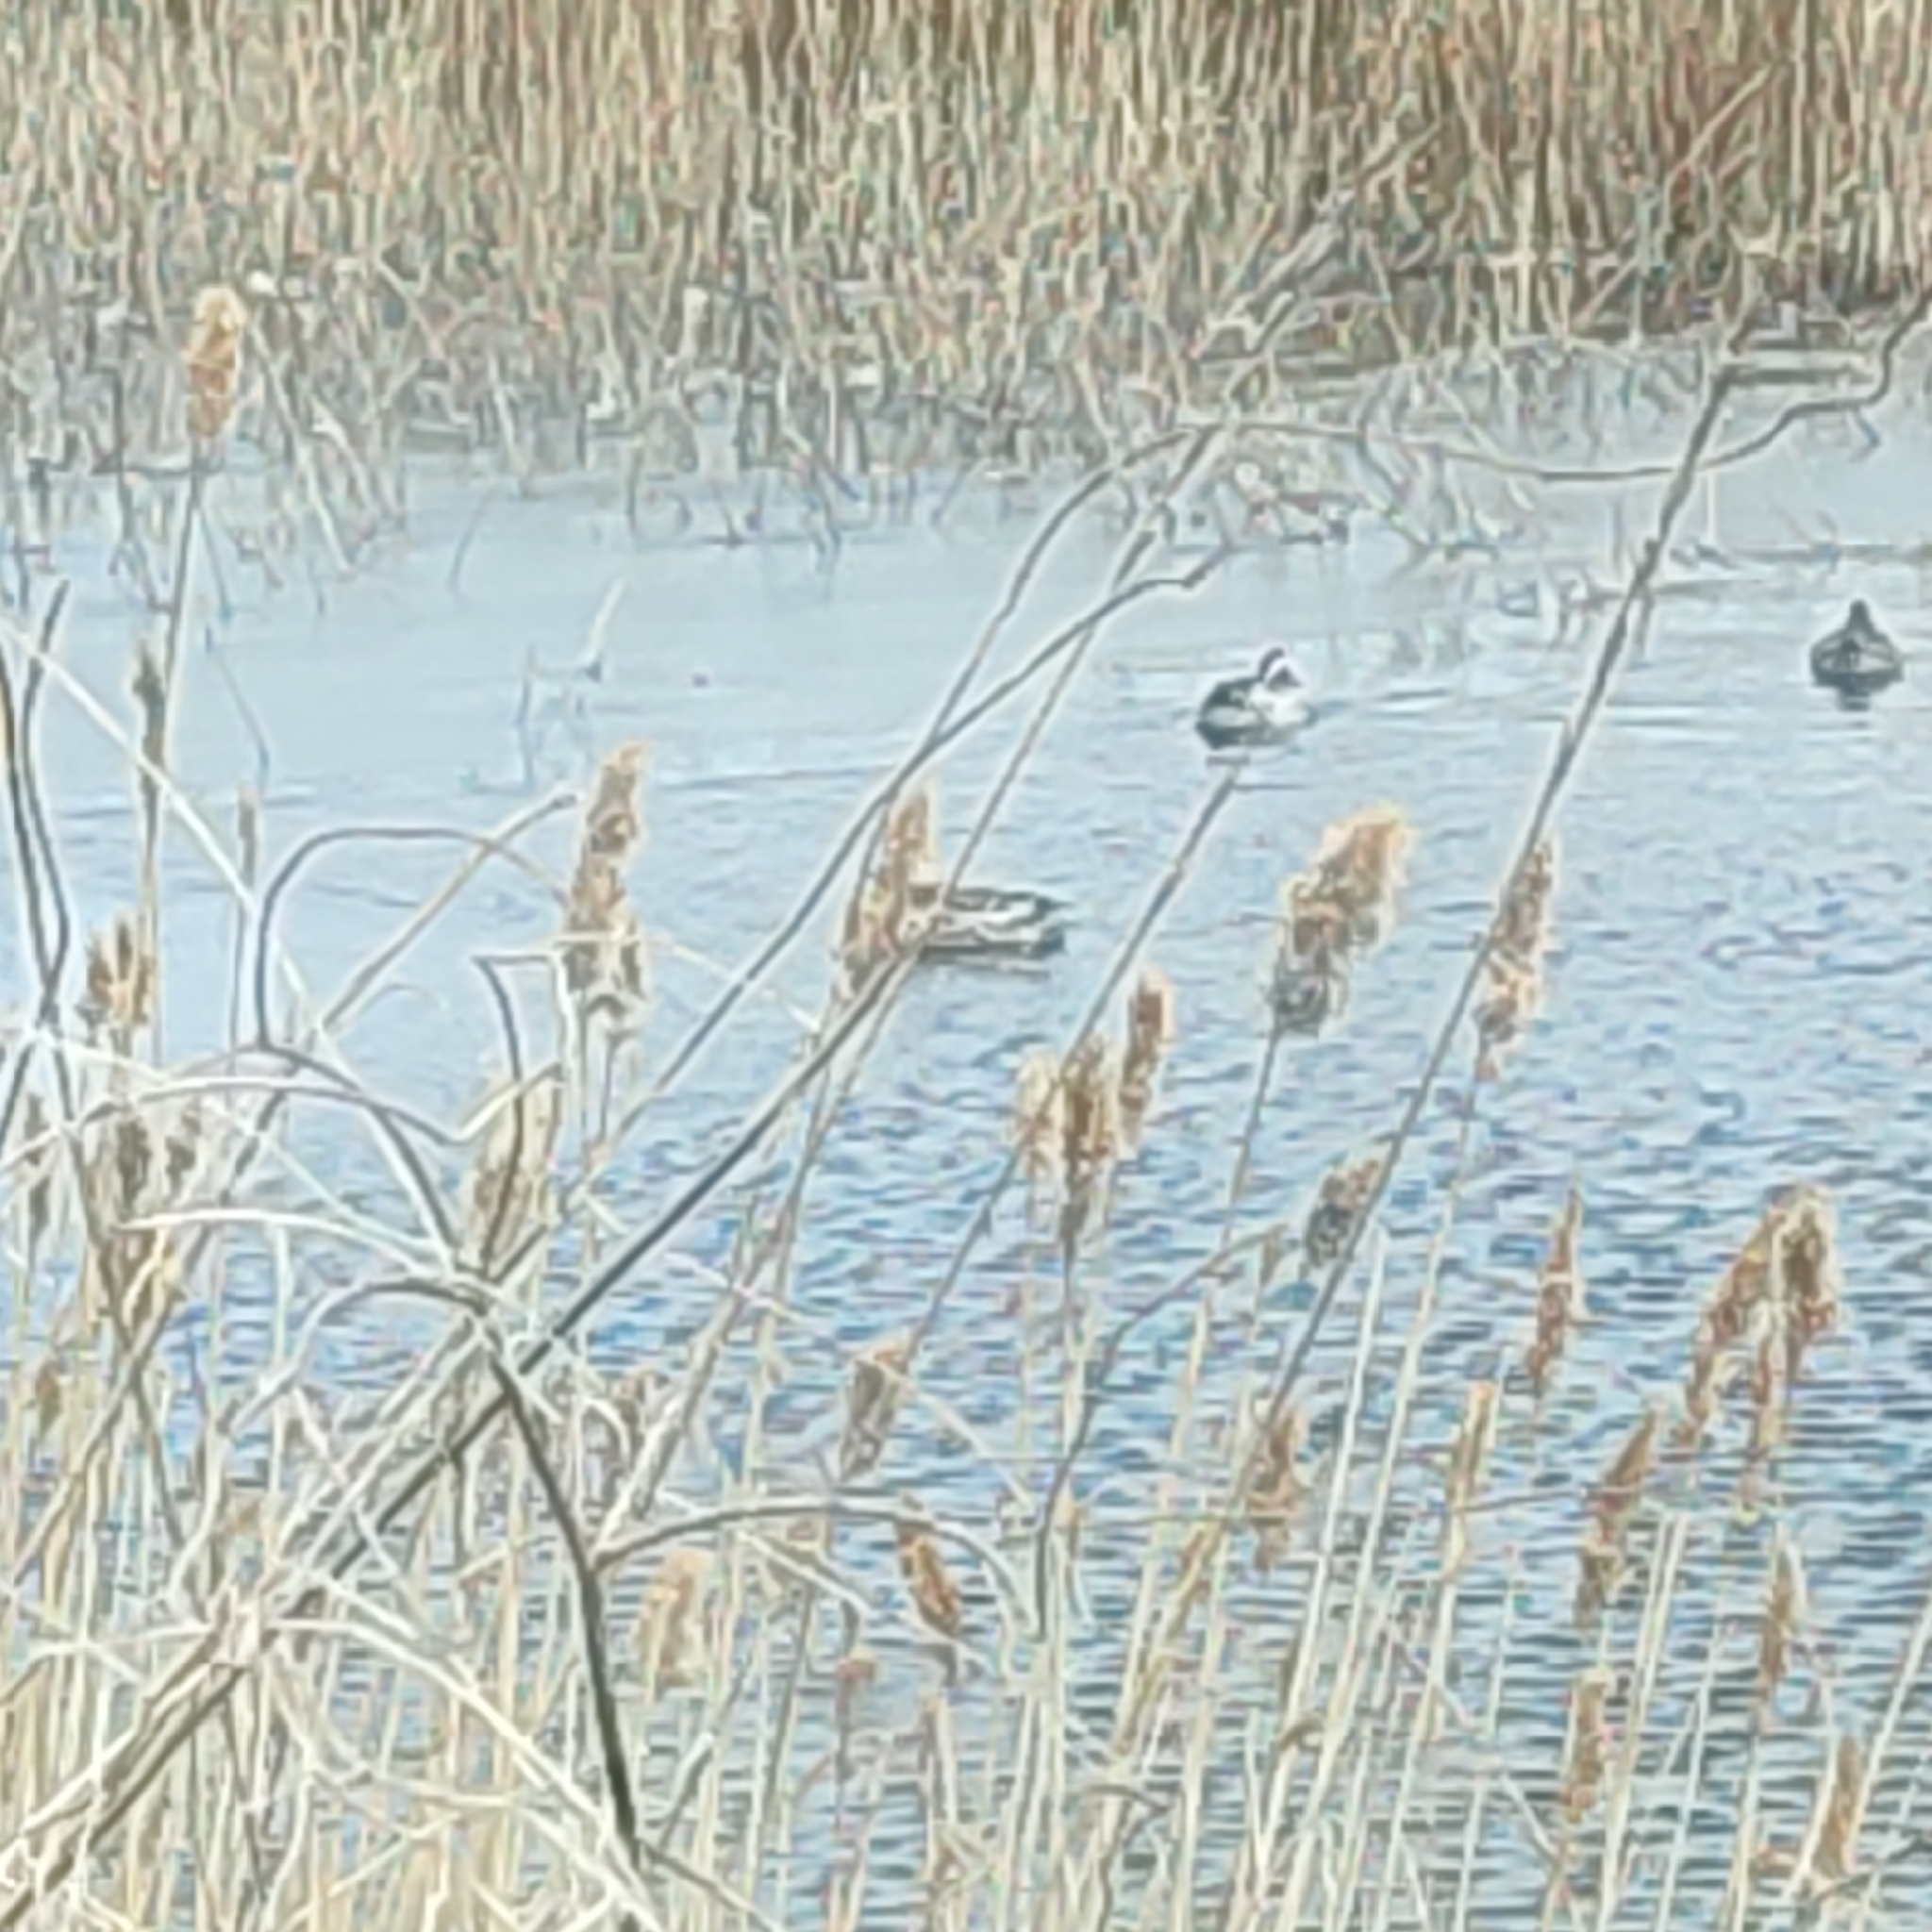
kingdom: Animalia
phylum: Chordata
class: Aves
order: Anseriformes
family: Anatidae
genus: Spatula
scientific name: Spatula querquedula
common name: Garganey
